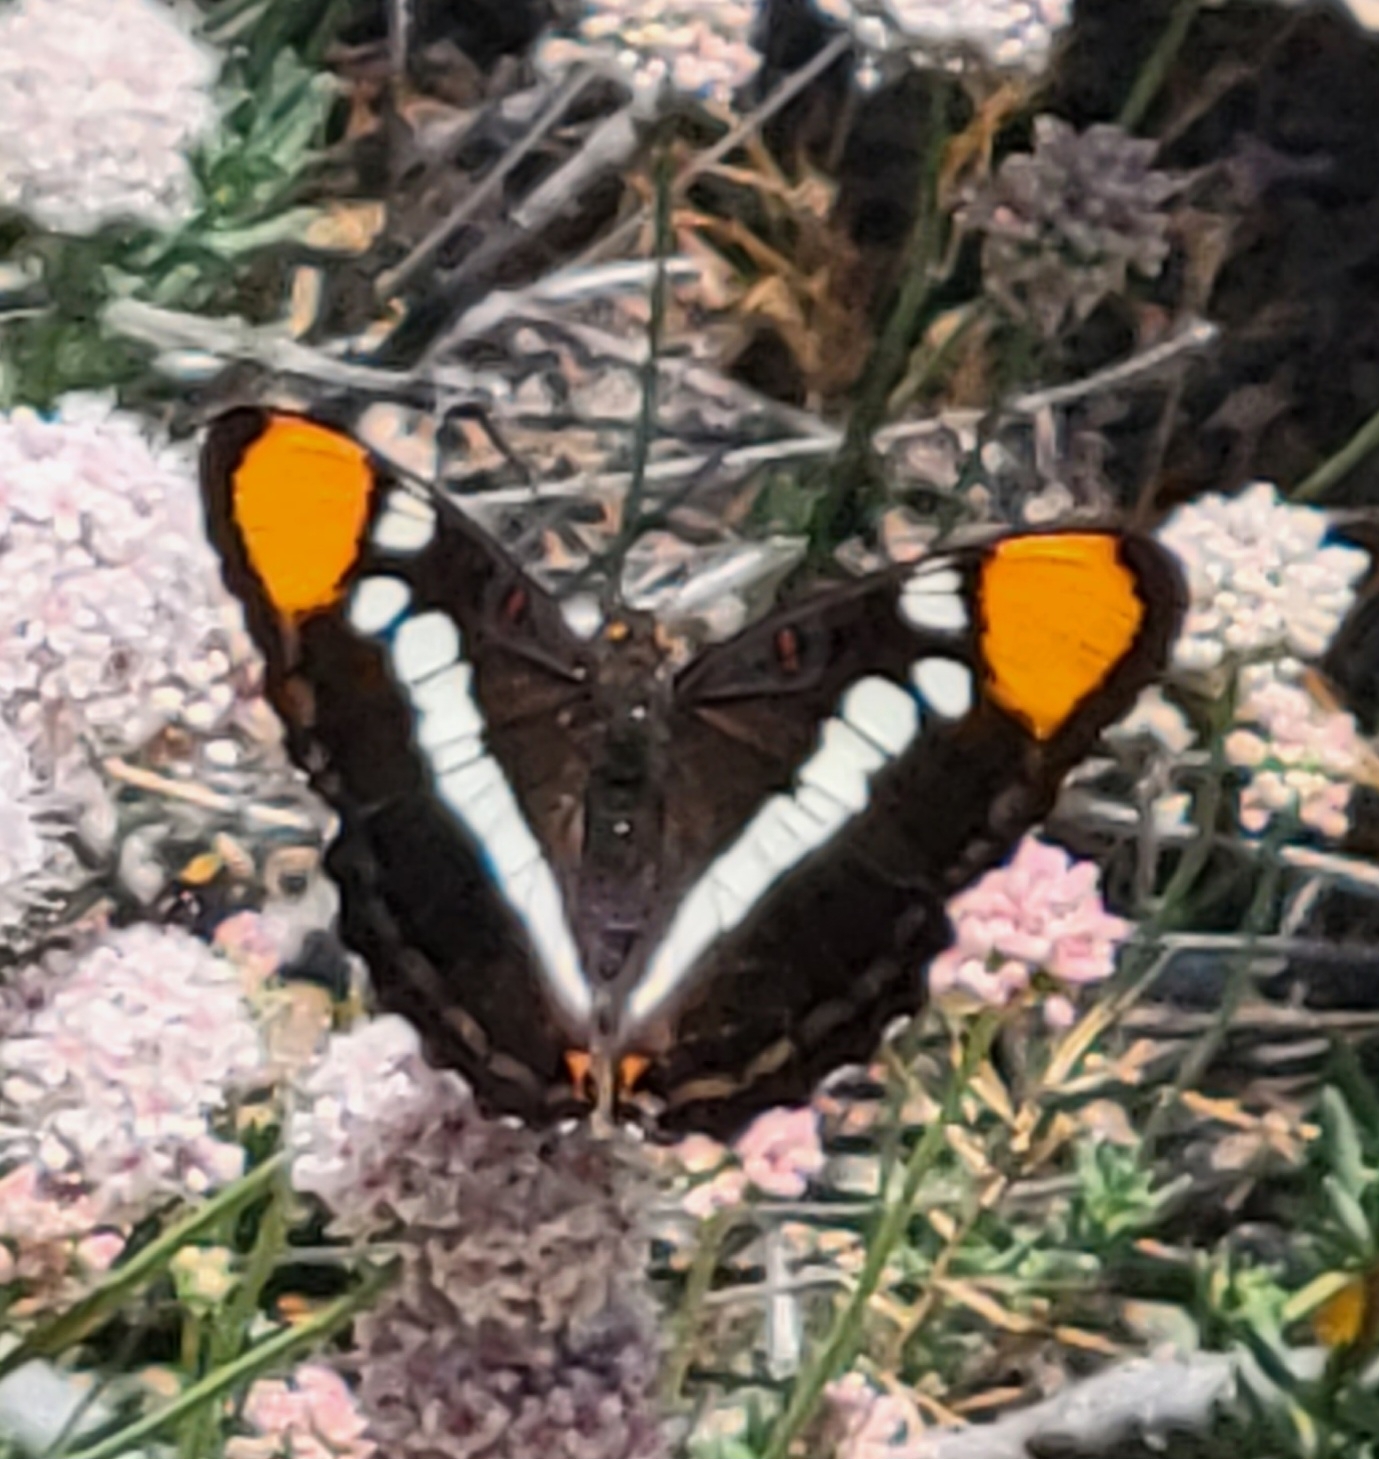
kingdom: Animalia
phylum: Arthropoda
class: Insecta
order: Lepidoptera
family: Nymphalidae
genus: Limenitis
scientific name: Limenitis bredowii
